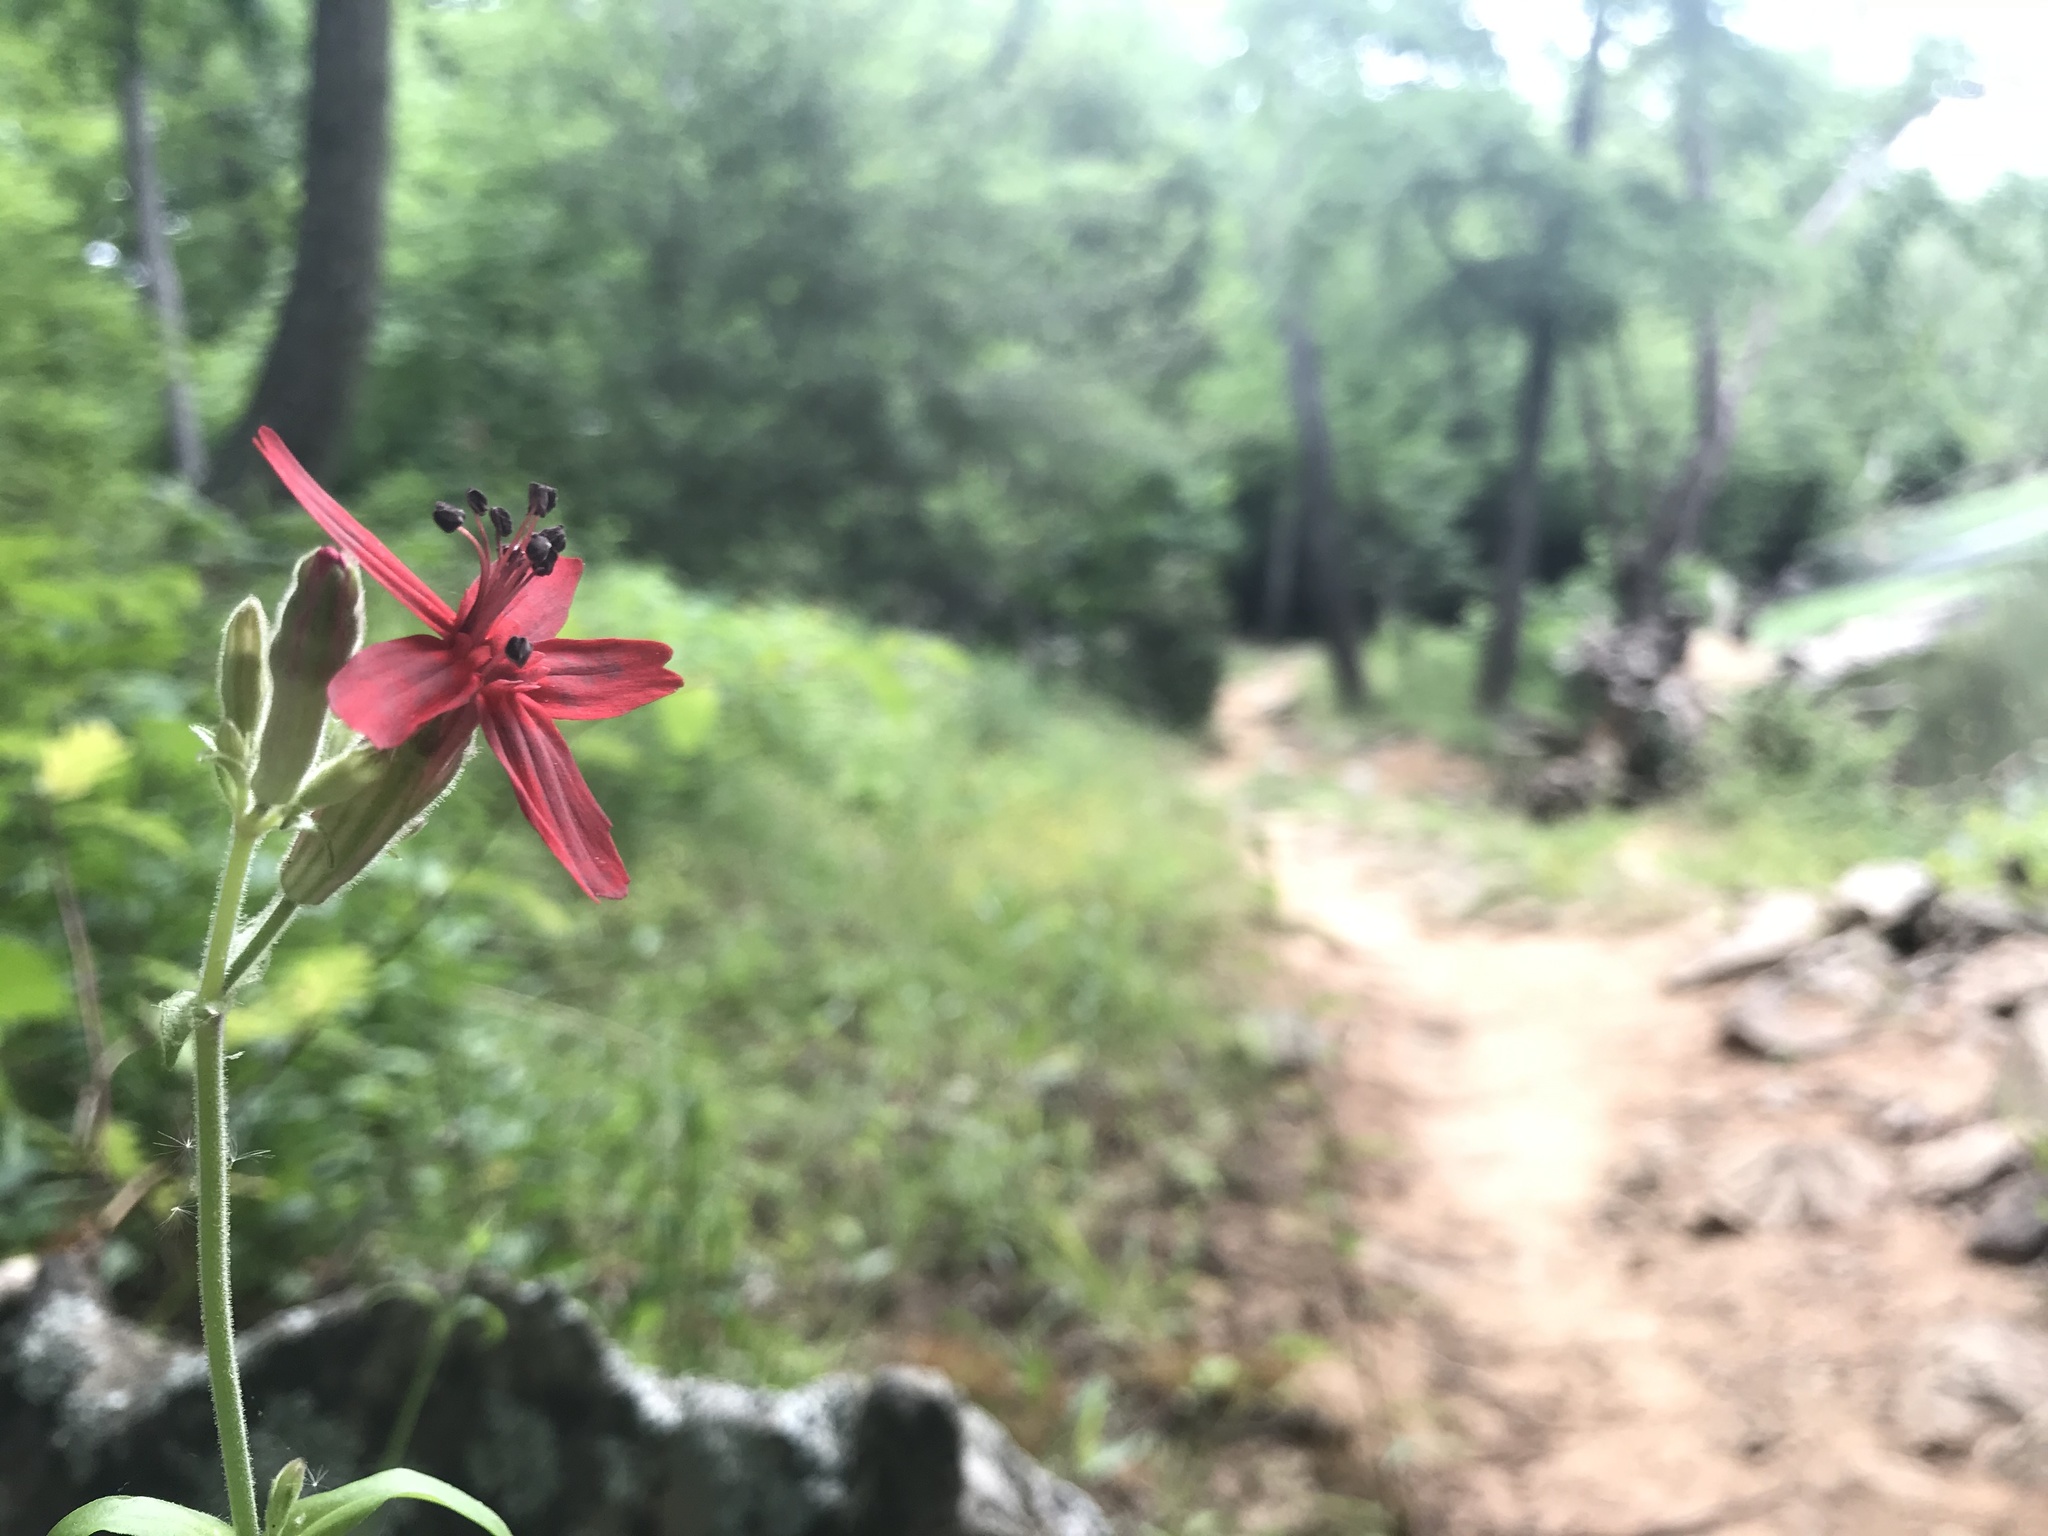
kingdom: Plantae
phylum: Tracheophyta
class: Magnoliopsida
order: Caryophyllales
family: Caryophyllaceae
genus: Silene
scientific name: Silene virginica
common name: Fire-pink
